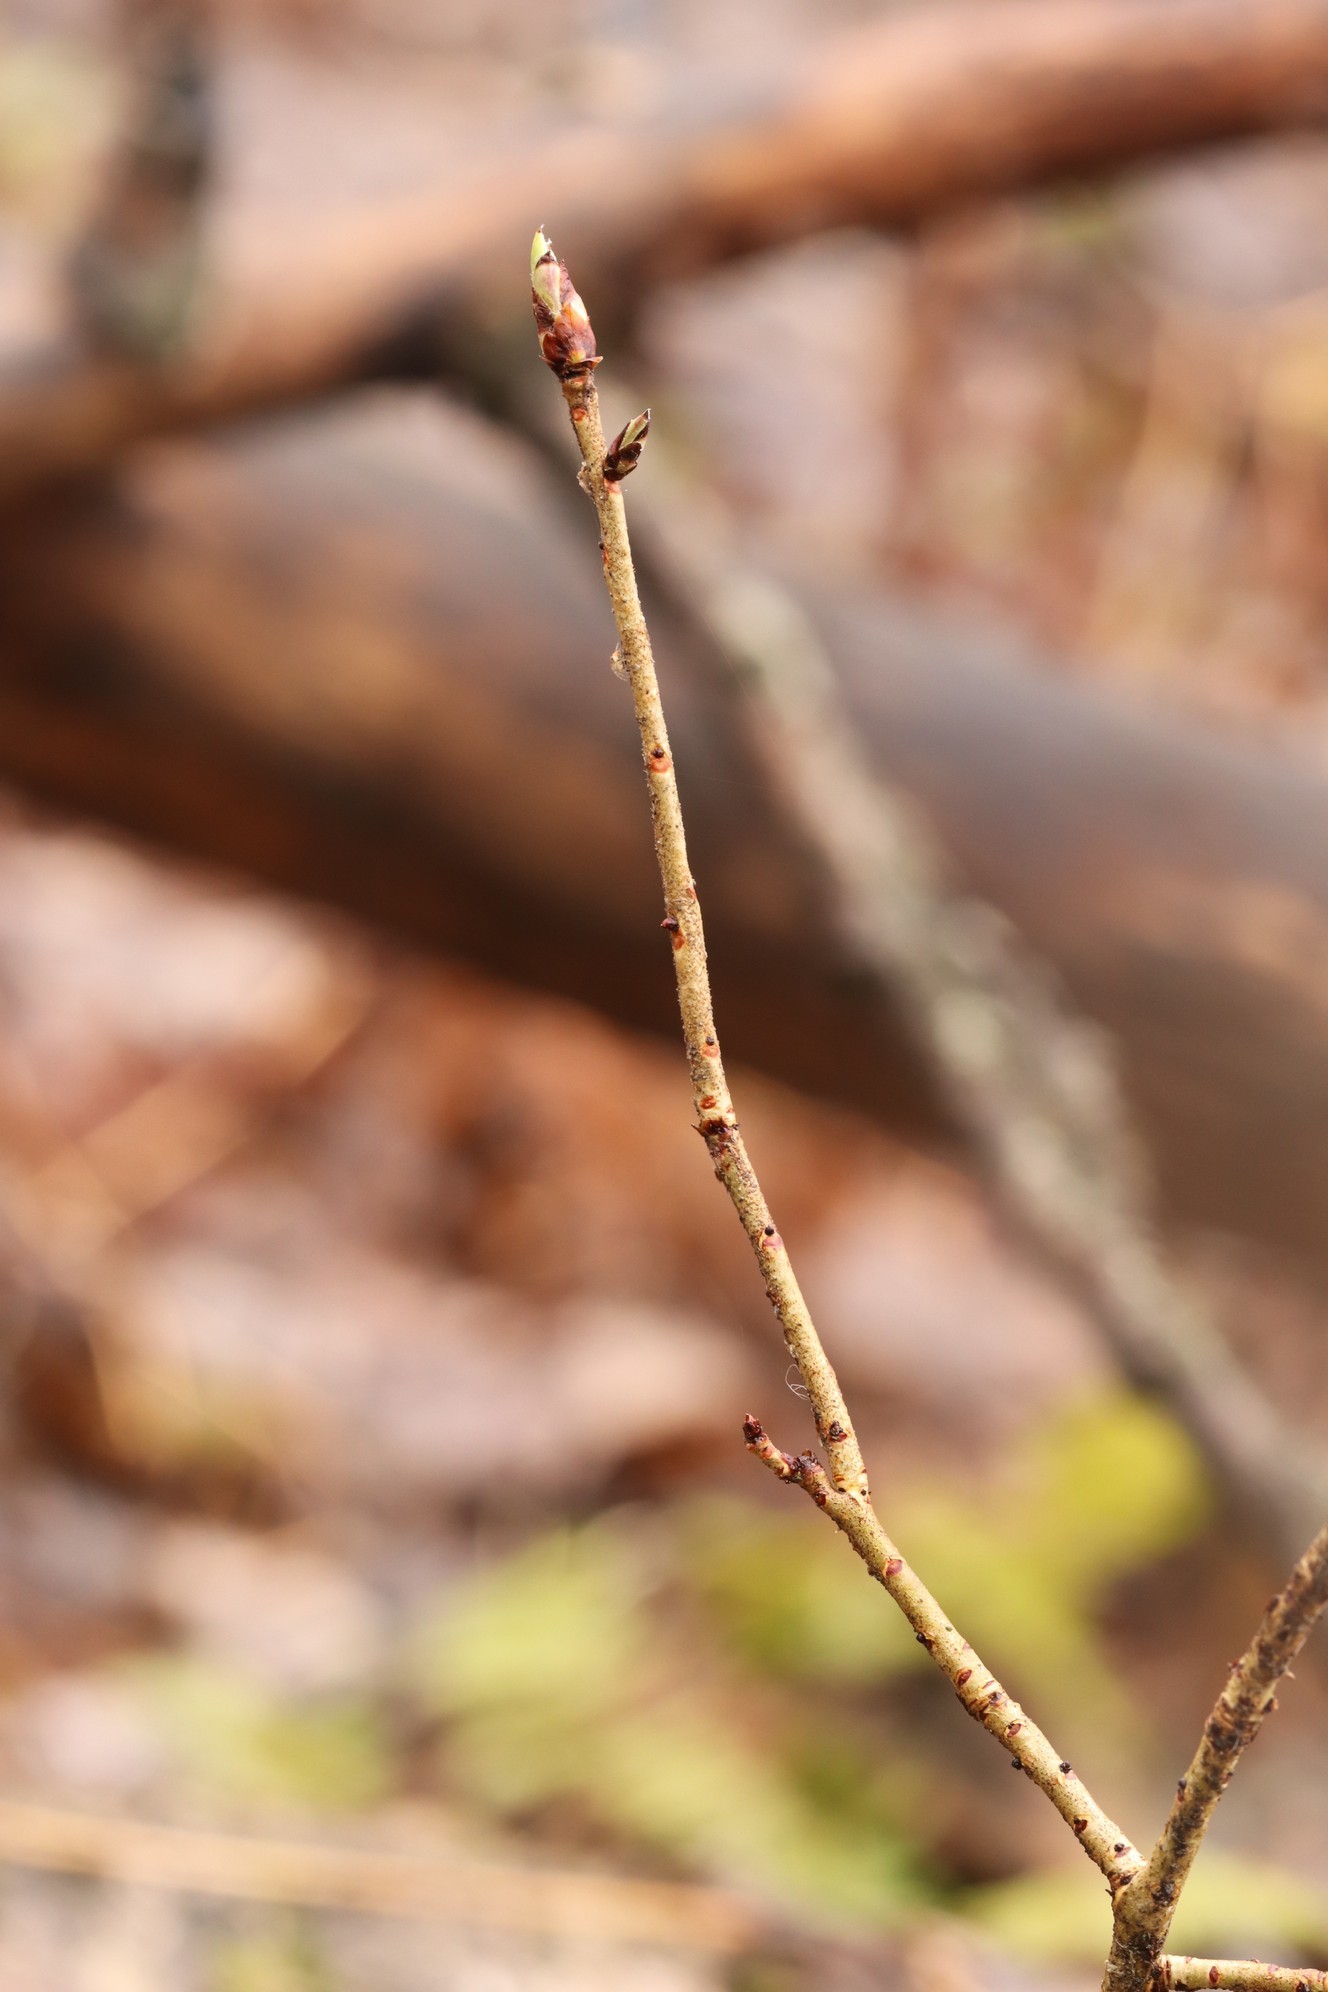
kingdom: Plantae
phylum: Tracheophyta
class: Magnoliopsida
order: Malvales
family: Thymelaeaceae
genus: Daphne
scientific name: Daphne mezereum
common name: Mezereon
